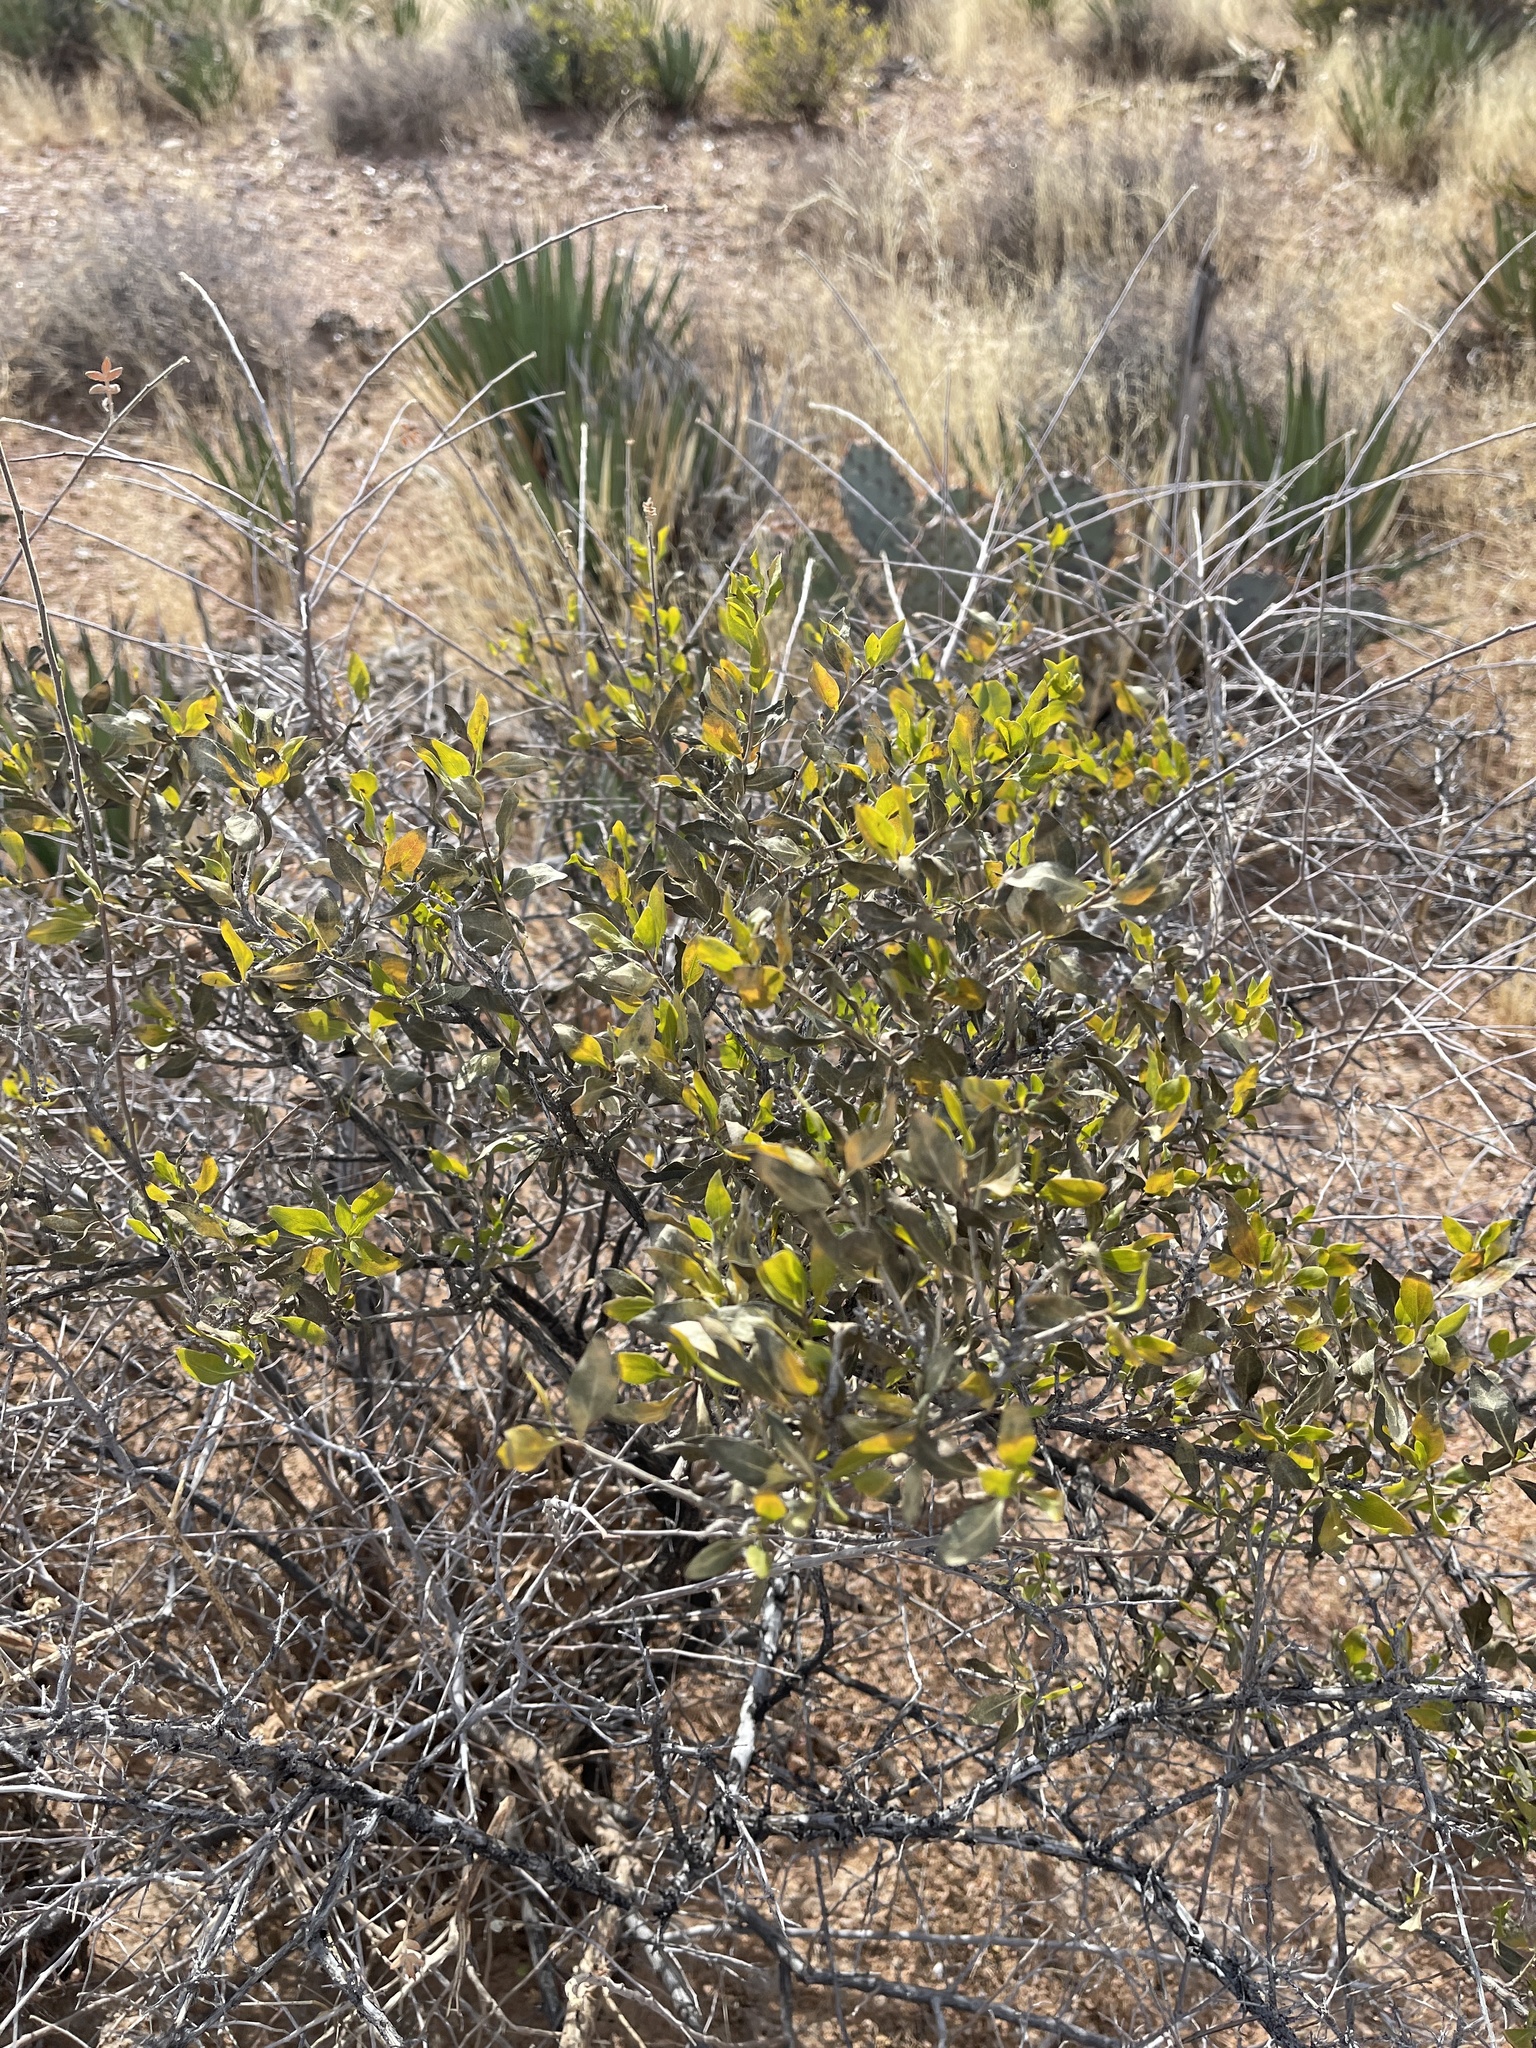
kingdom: Plantae
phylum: Tracheophyta
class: Magnoliopsida
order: Asterales
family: Asteraceae
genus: Flourensia
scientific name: Flourensia cernua
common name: Varnishbush
